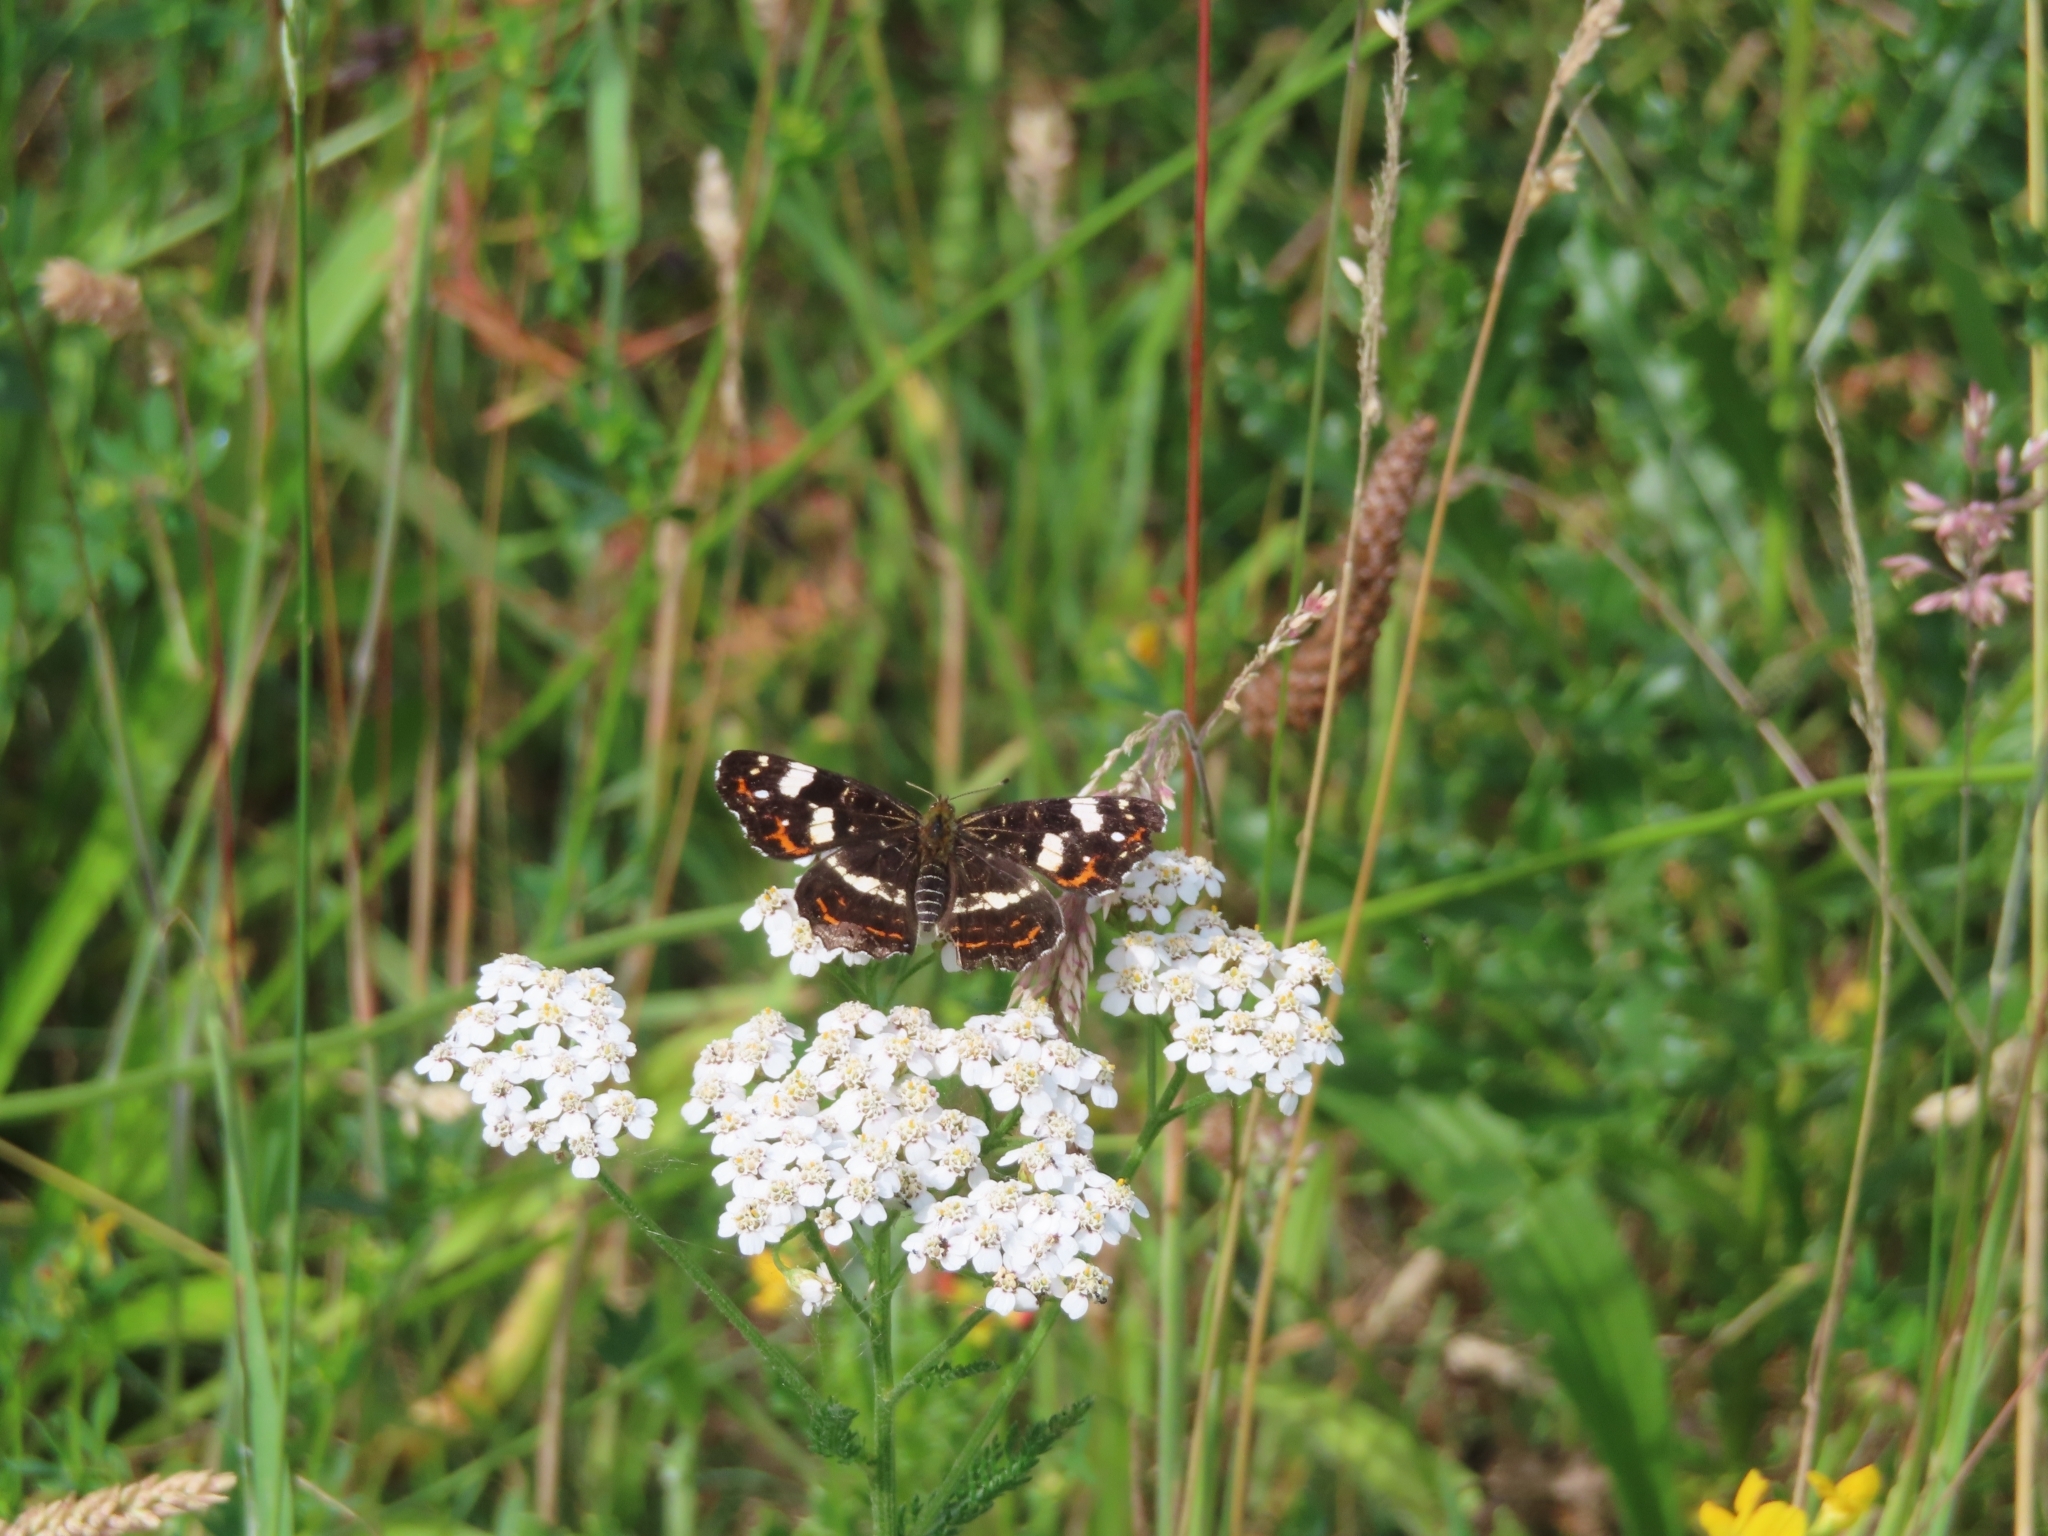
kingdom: Animalia
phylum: Arthropoda
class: Insecta
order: Lepidoptera
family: Nymphalidae
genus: Araschnia
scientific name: Araschnia levana
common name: Map butterfly
